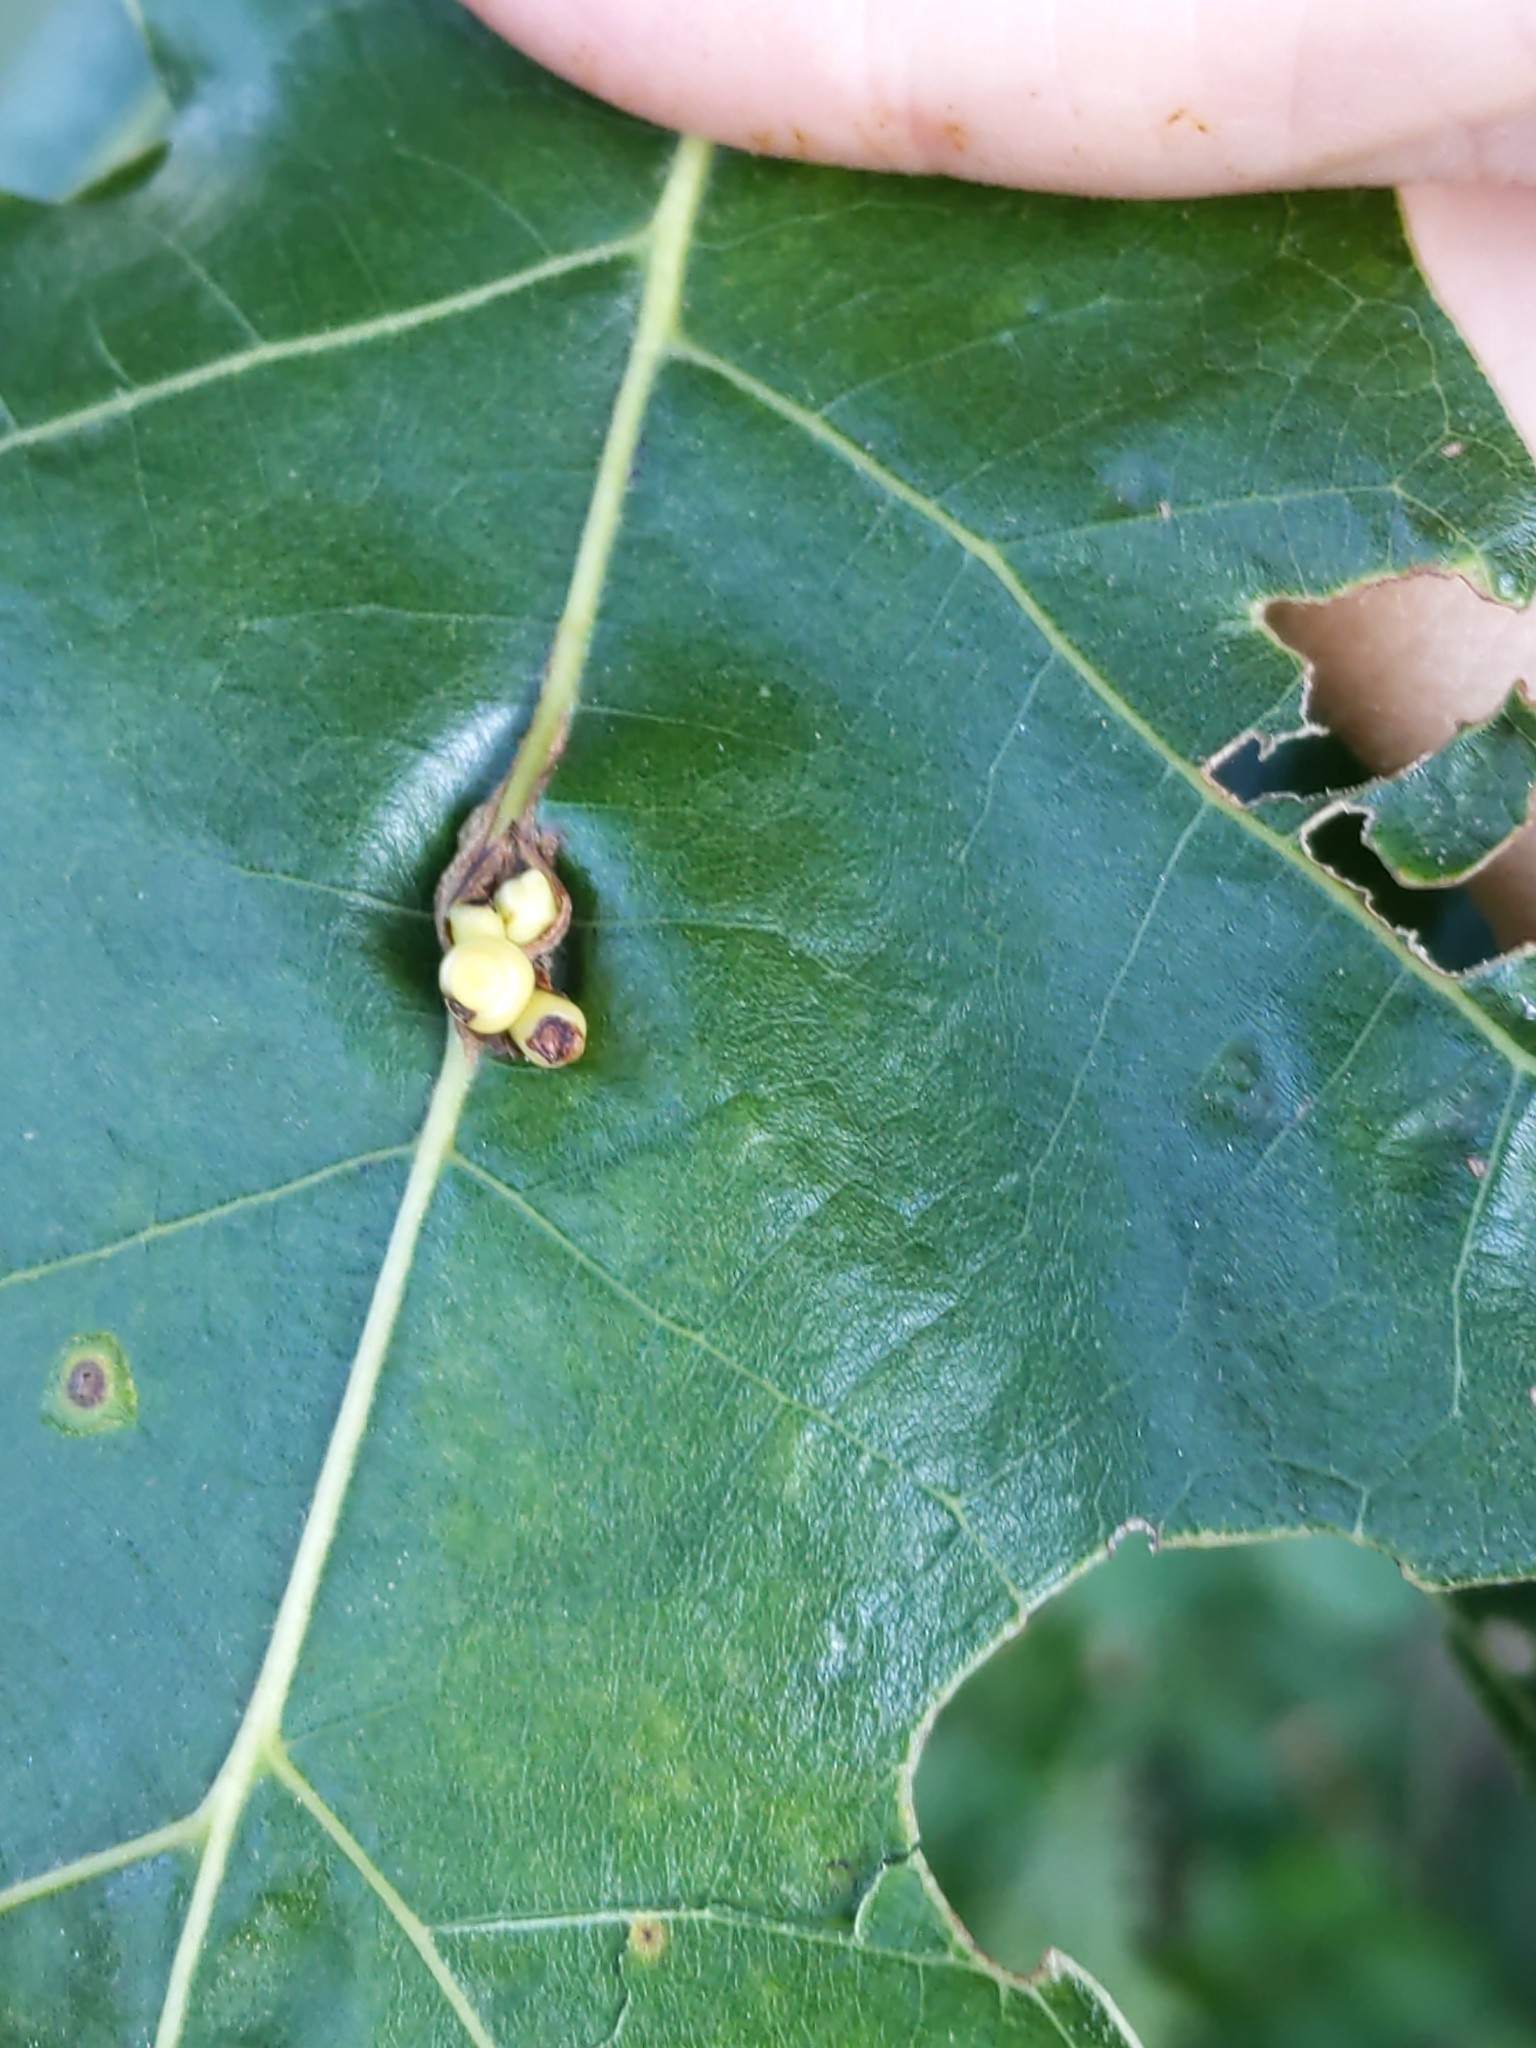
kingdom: Animalia
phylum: Arthropoda
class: Insecta
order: Hymenoptera
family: Cynipidae
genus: Kokkocynips
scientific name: Kokkocynips decidua
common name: Oak wheat gall
